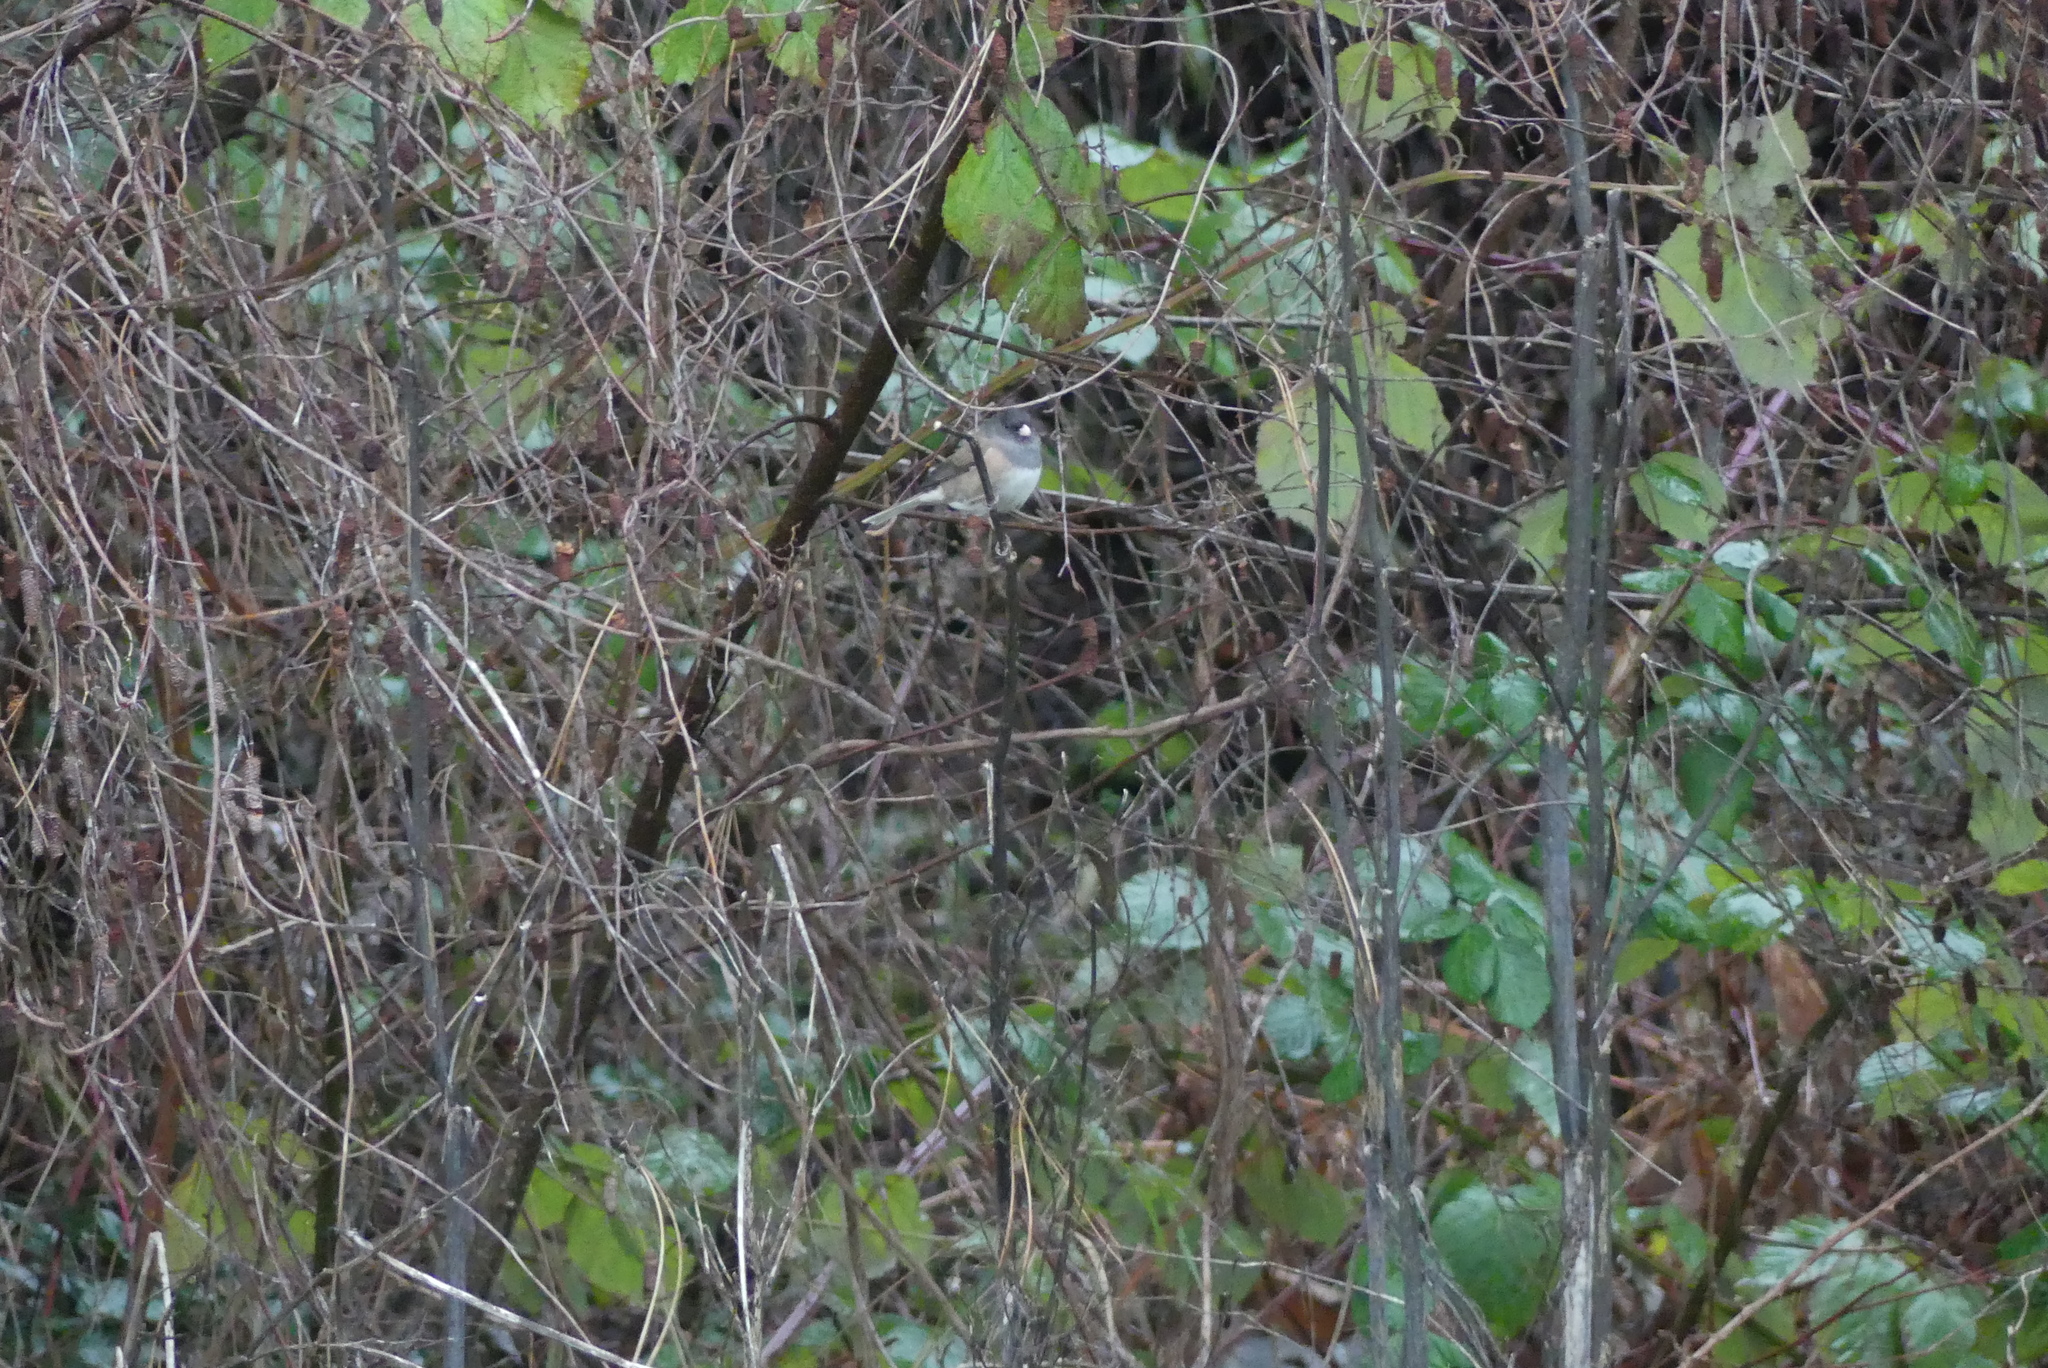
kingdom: Animalia
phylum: Chordata
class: Aves
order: Passeriformes
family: Passerellidae
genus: Junco
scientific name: Junco hyemalis
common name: Dark-eyed junco
